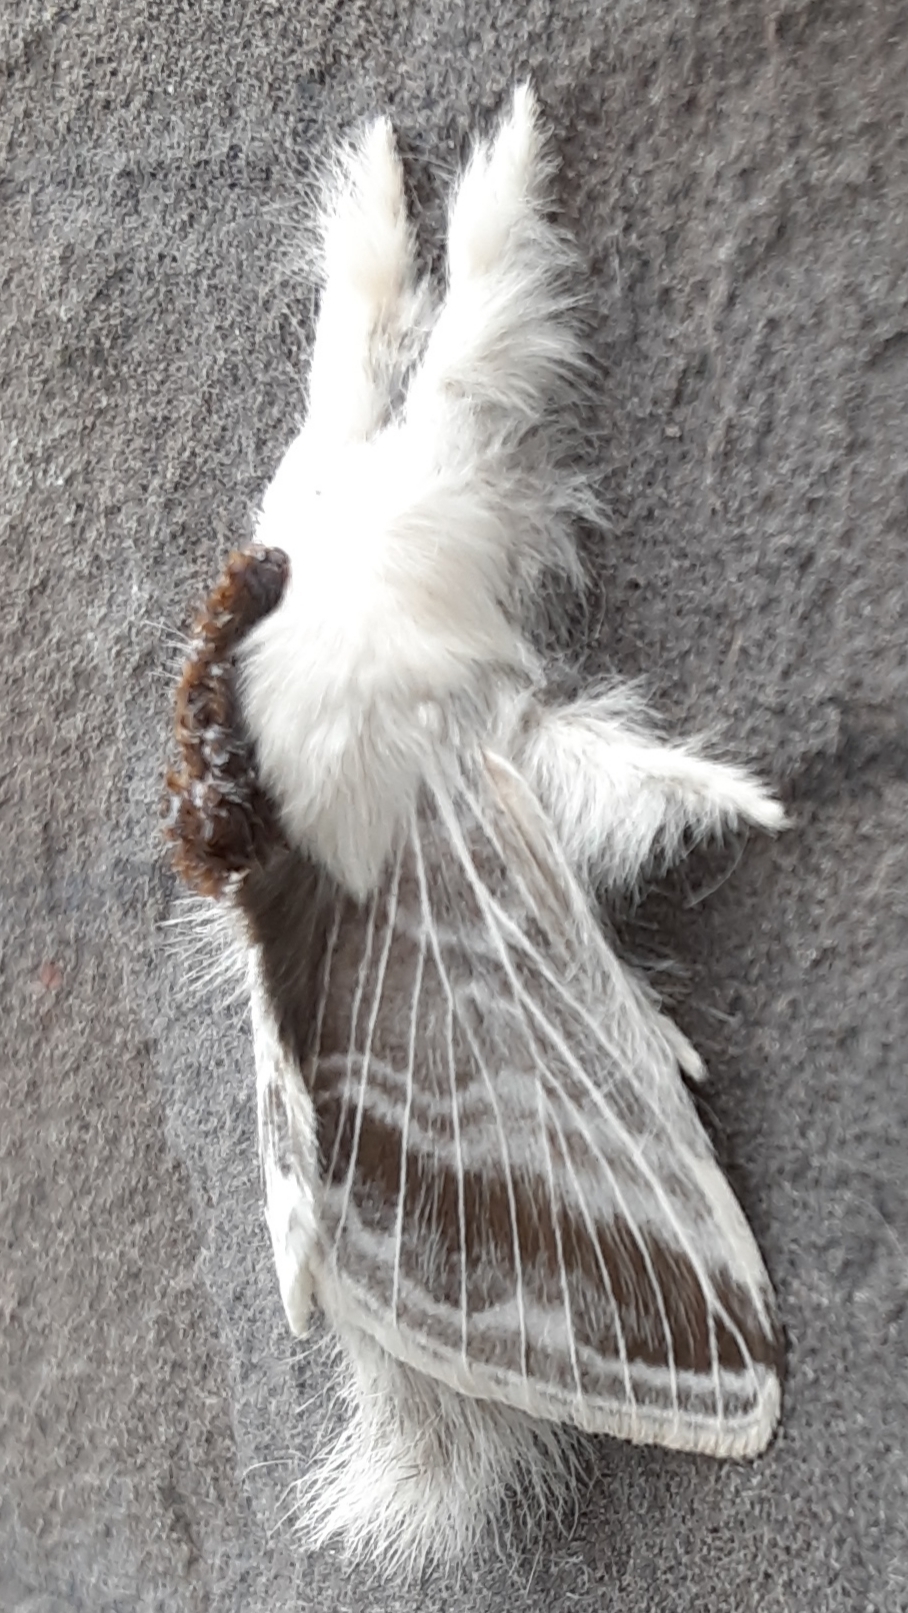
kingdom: Animalia
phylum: Arthropoda
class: Insecta
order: Lepidoptera
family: Lasiocampidae
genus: Tolype
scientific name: Tolype velleda
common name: Large tolype moth
